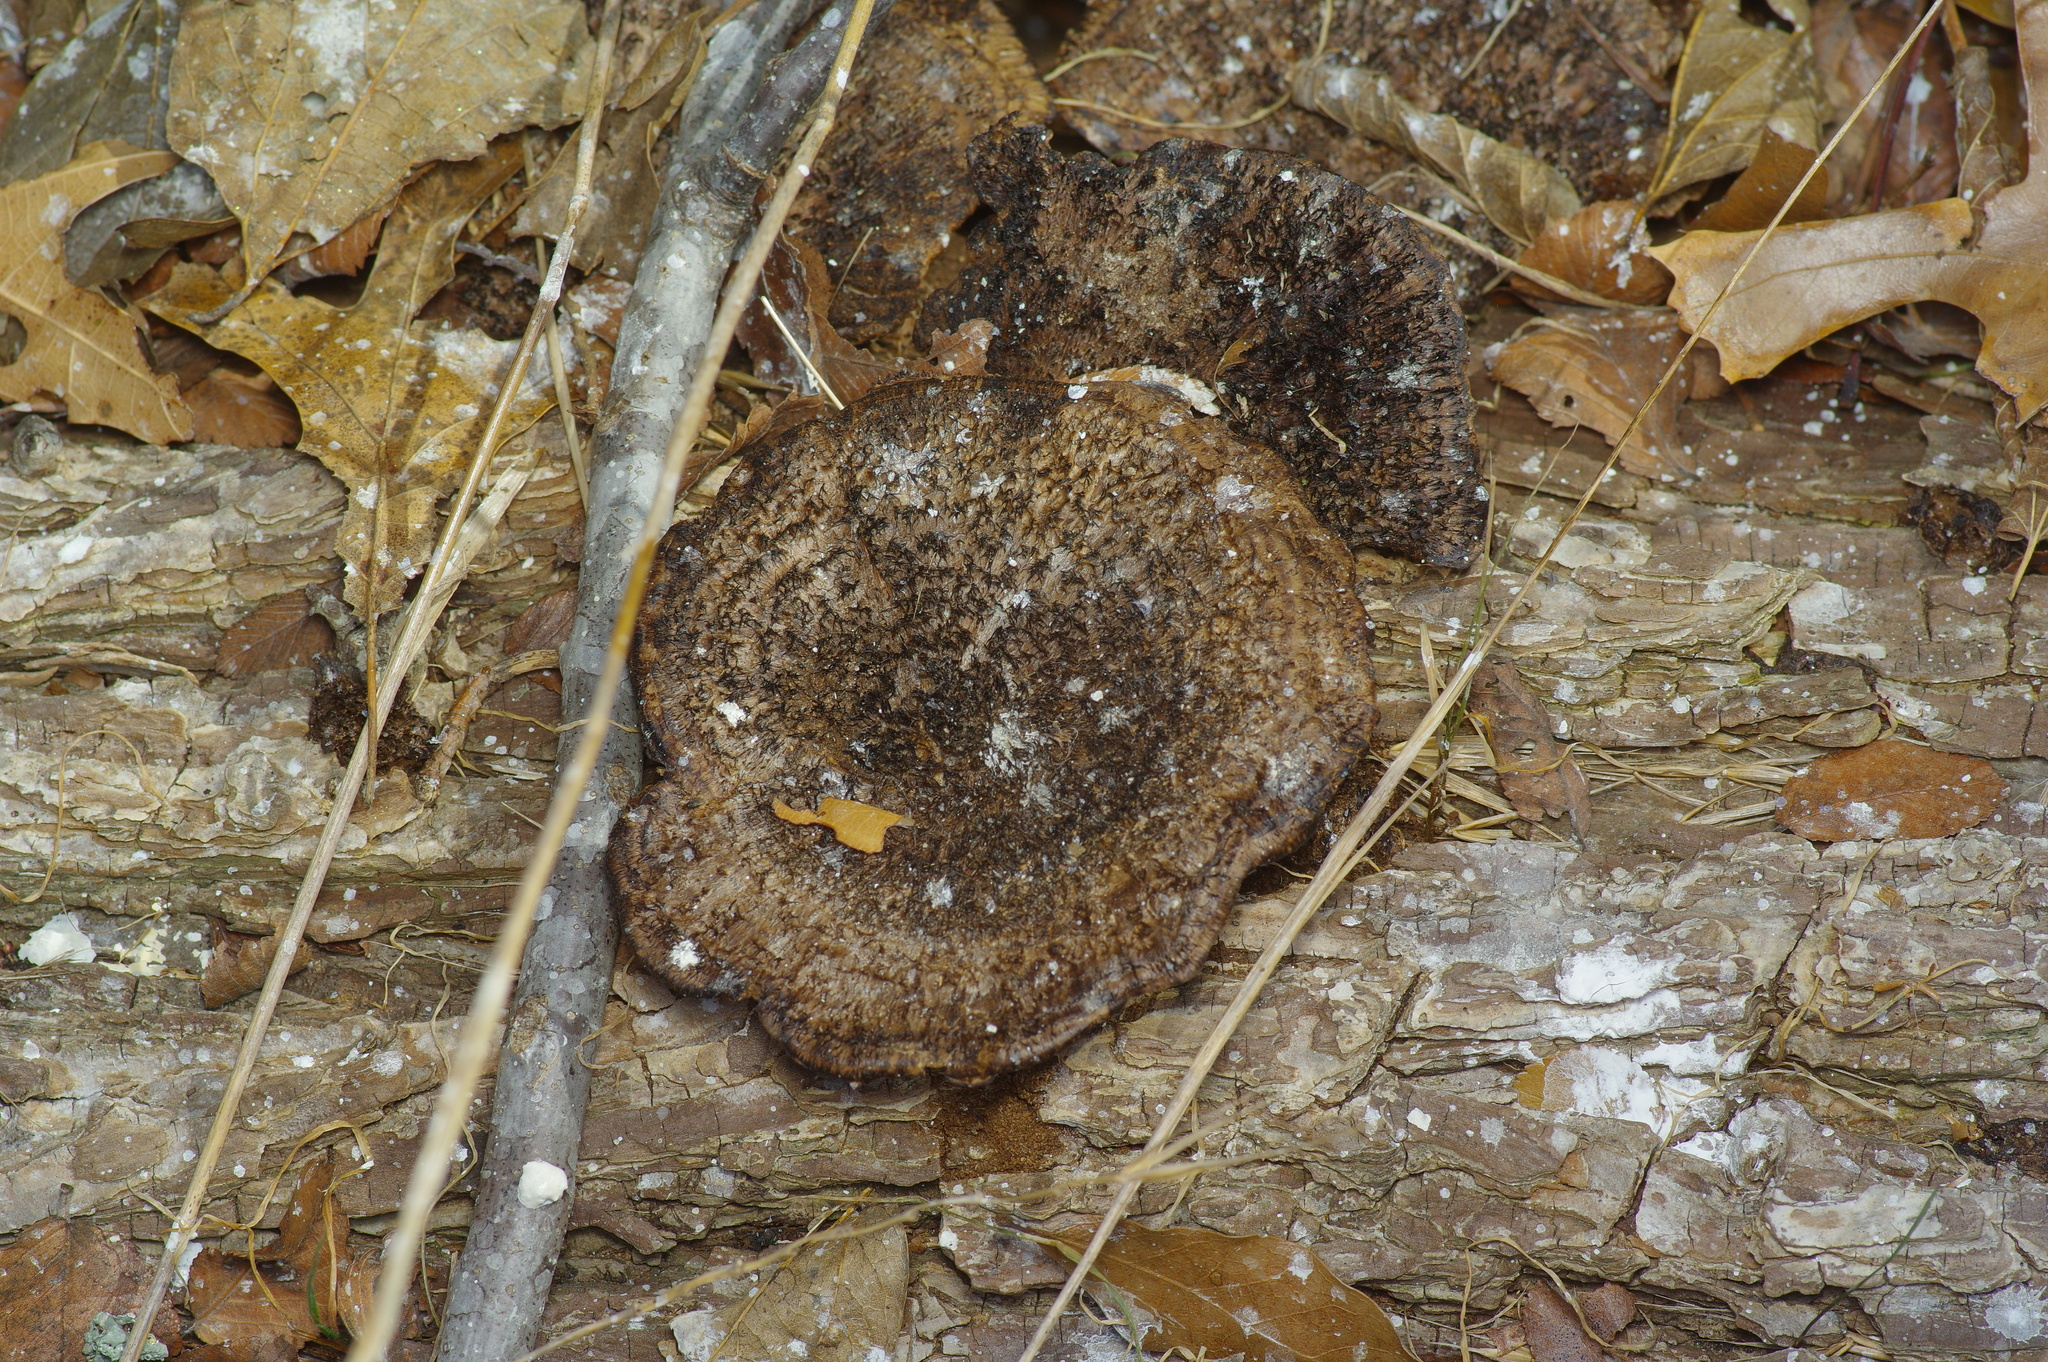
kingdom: Fungi
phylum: Basidiomycota
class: Agaricomycetes
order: Polyporales
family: Cerrenaceae
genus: Cerrena
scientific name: Cerrena hydnoides
